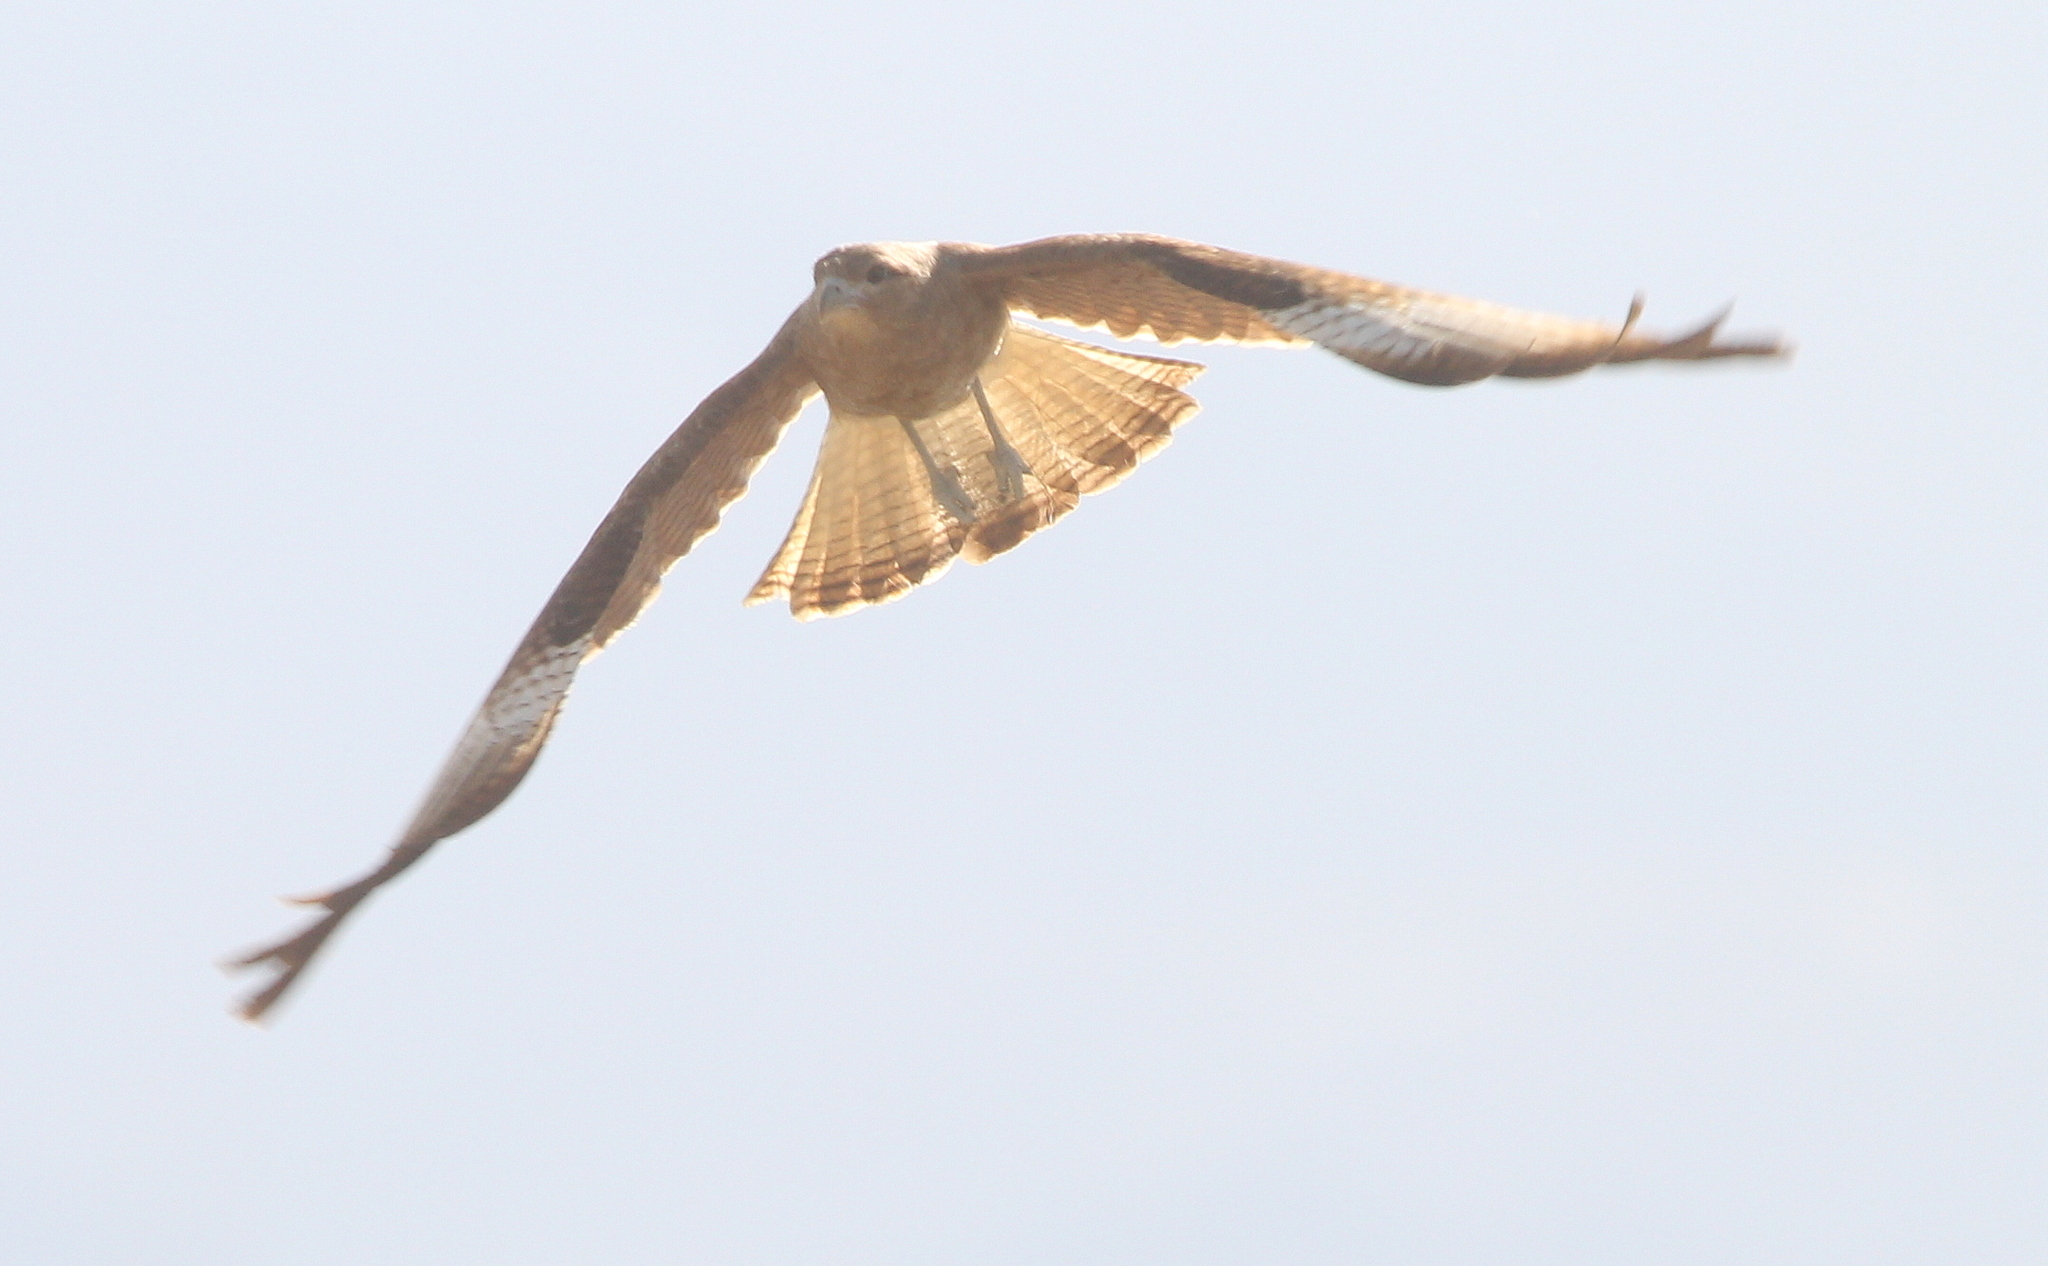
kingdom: Animalia
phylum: Chordata
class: Aves
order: Falconiformes
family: Falconidae
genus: Daptrius
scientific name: Daptrius
